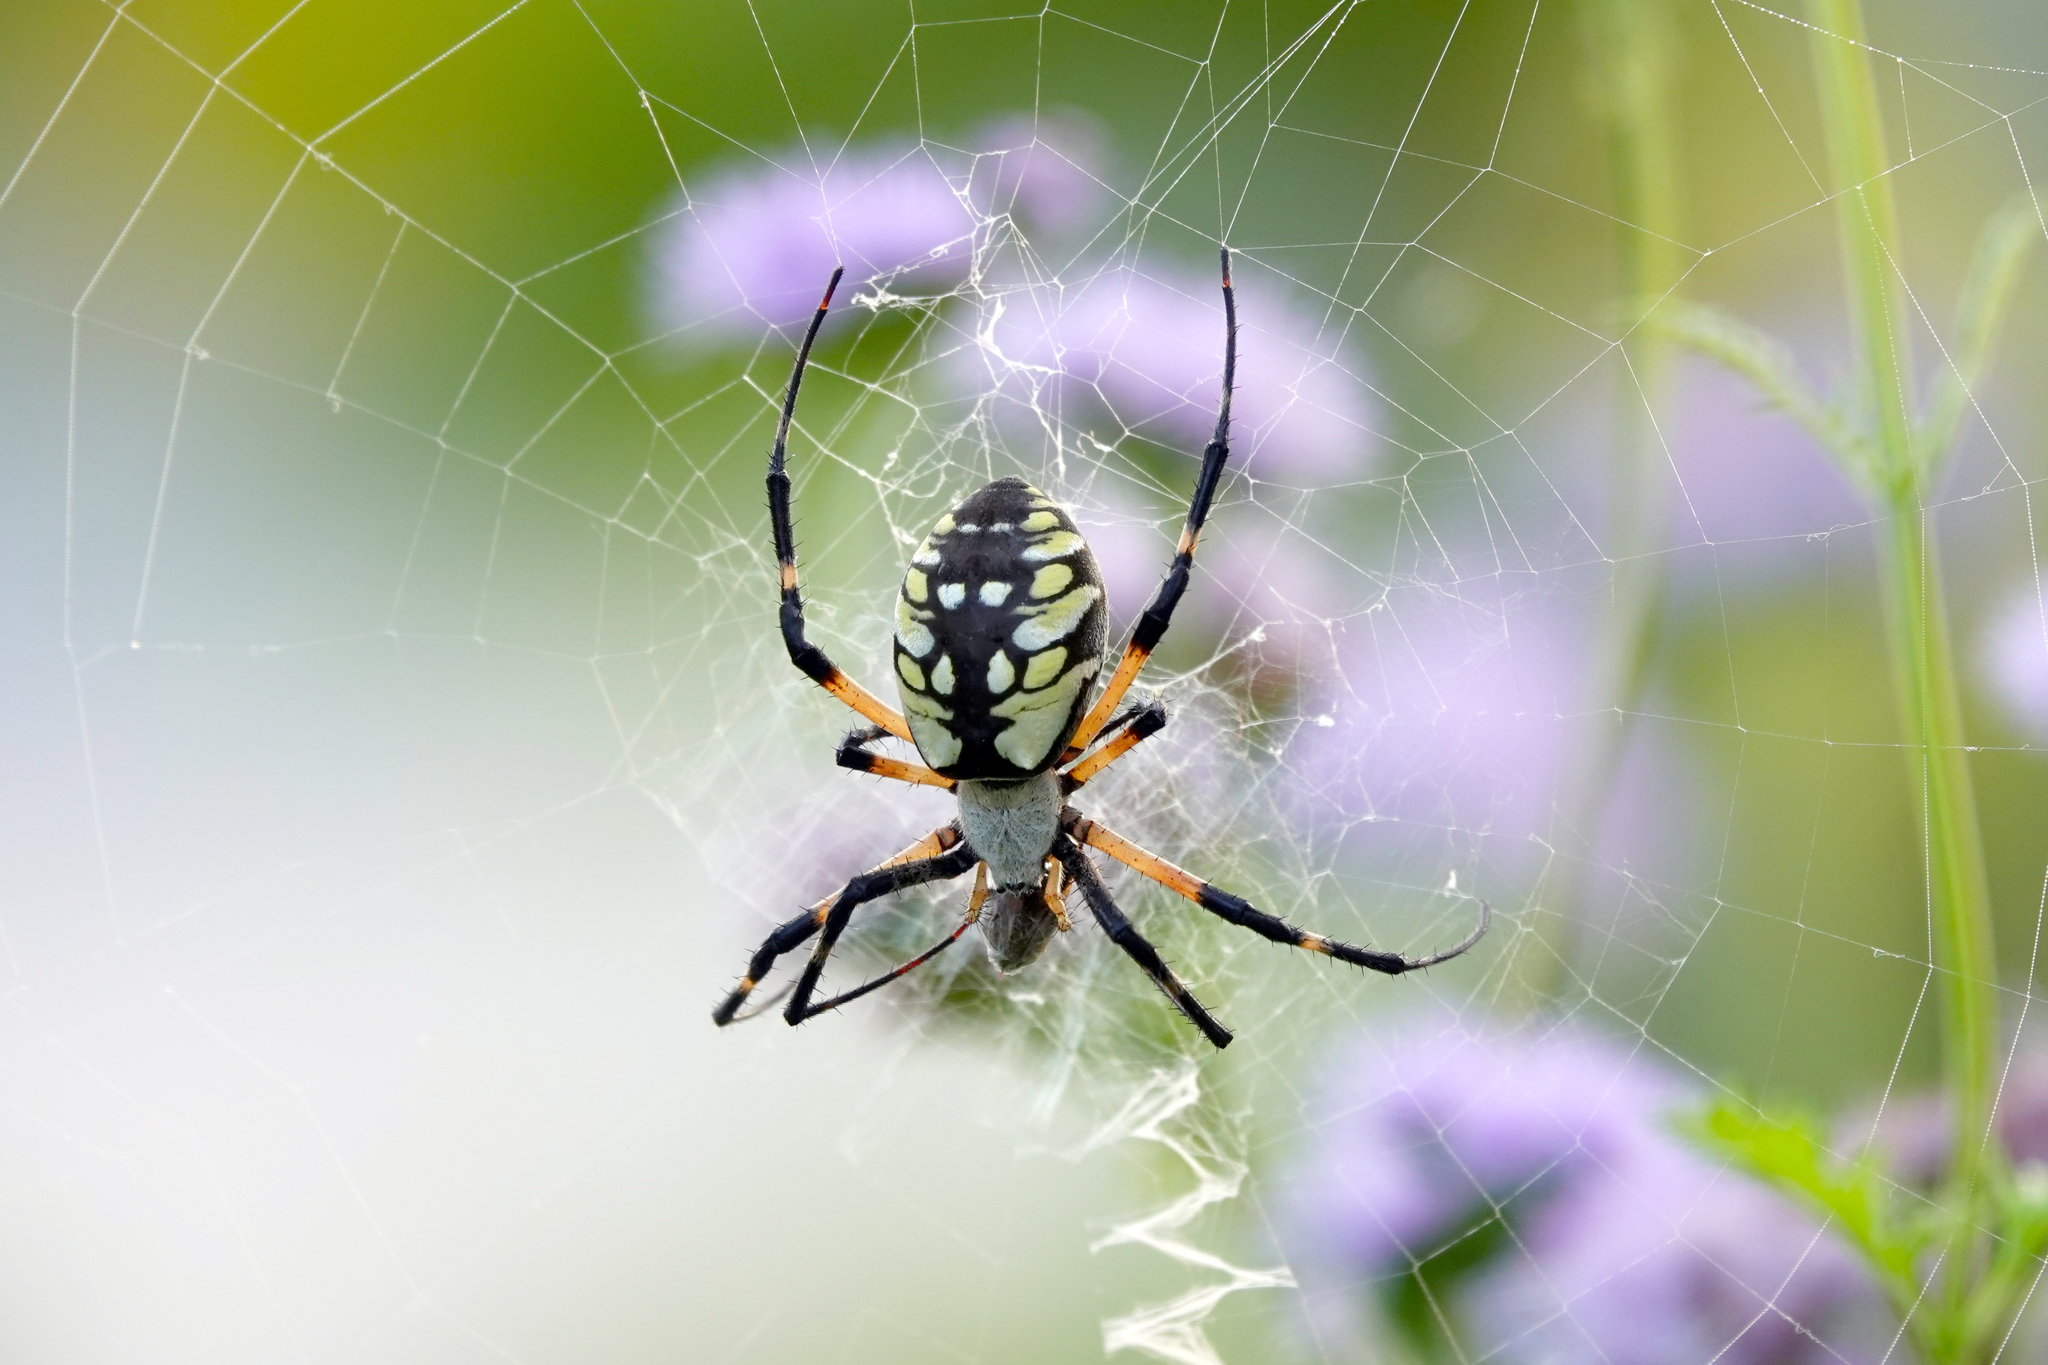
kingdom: Animalia
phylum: Arthropoda
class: Arachnida
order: Araneae
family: Araneidae
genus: Argiope
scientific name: Argiope aurantia
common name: Orb weavers
